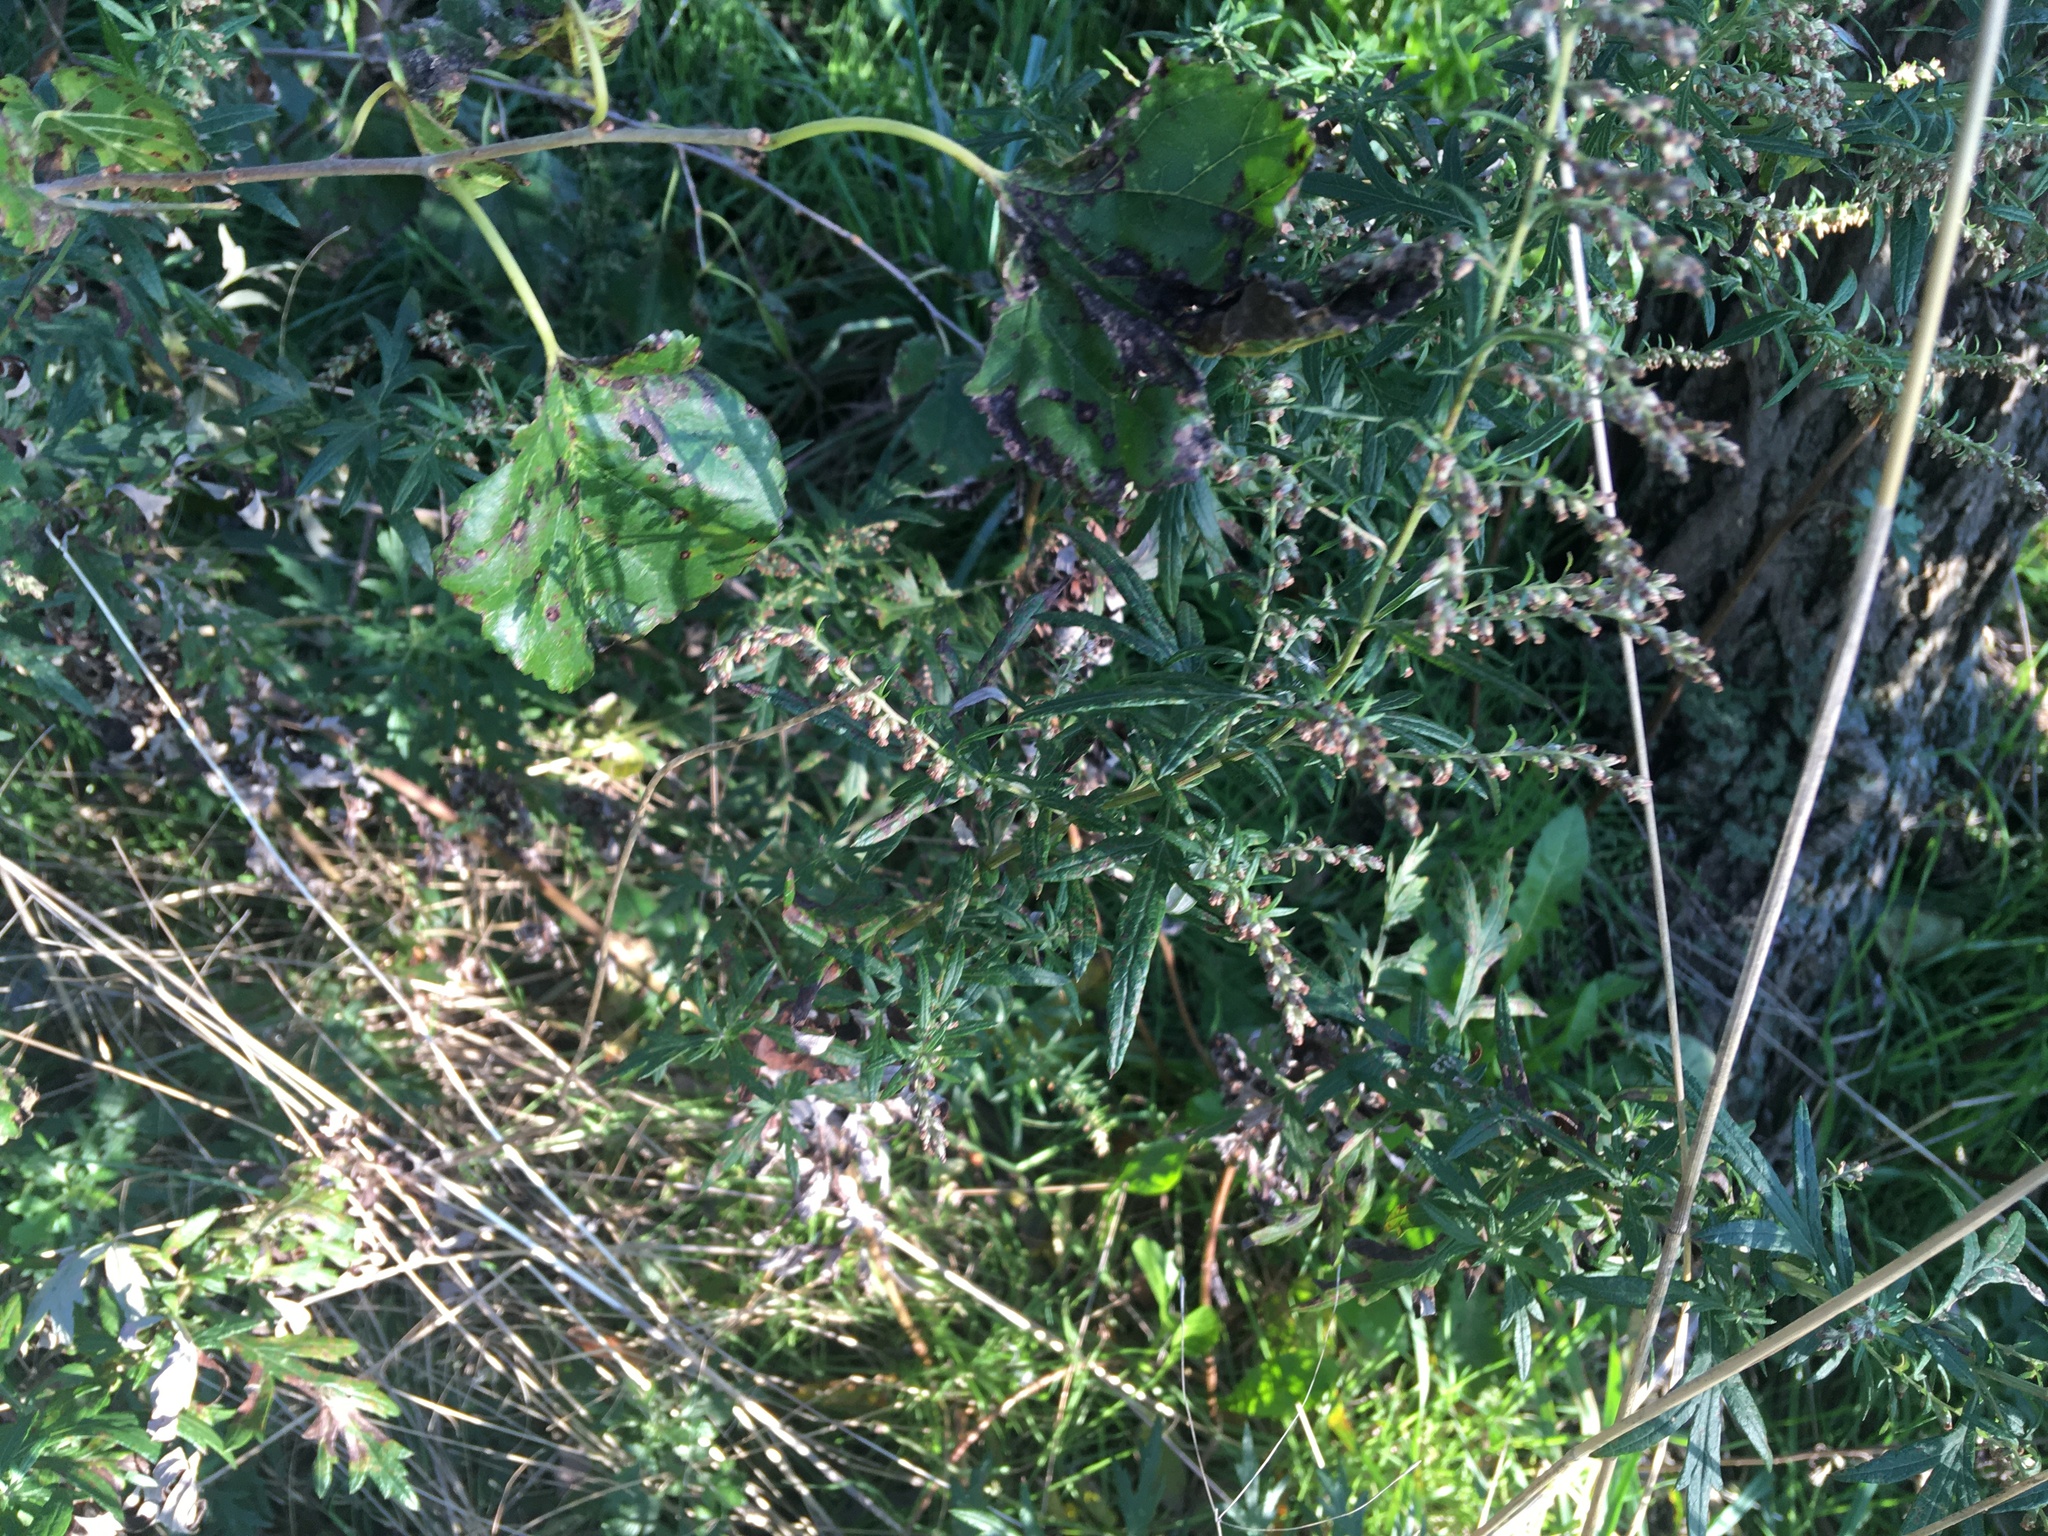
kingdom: Plantae
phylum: Tracheophyta
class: Magnoliopsida
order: Asterales
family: Asteraceae
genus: Artemisia
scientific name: Artemisia vulgaris
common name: Mugwort
